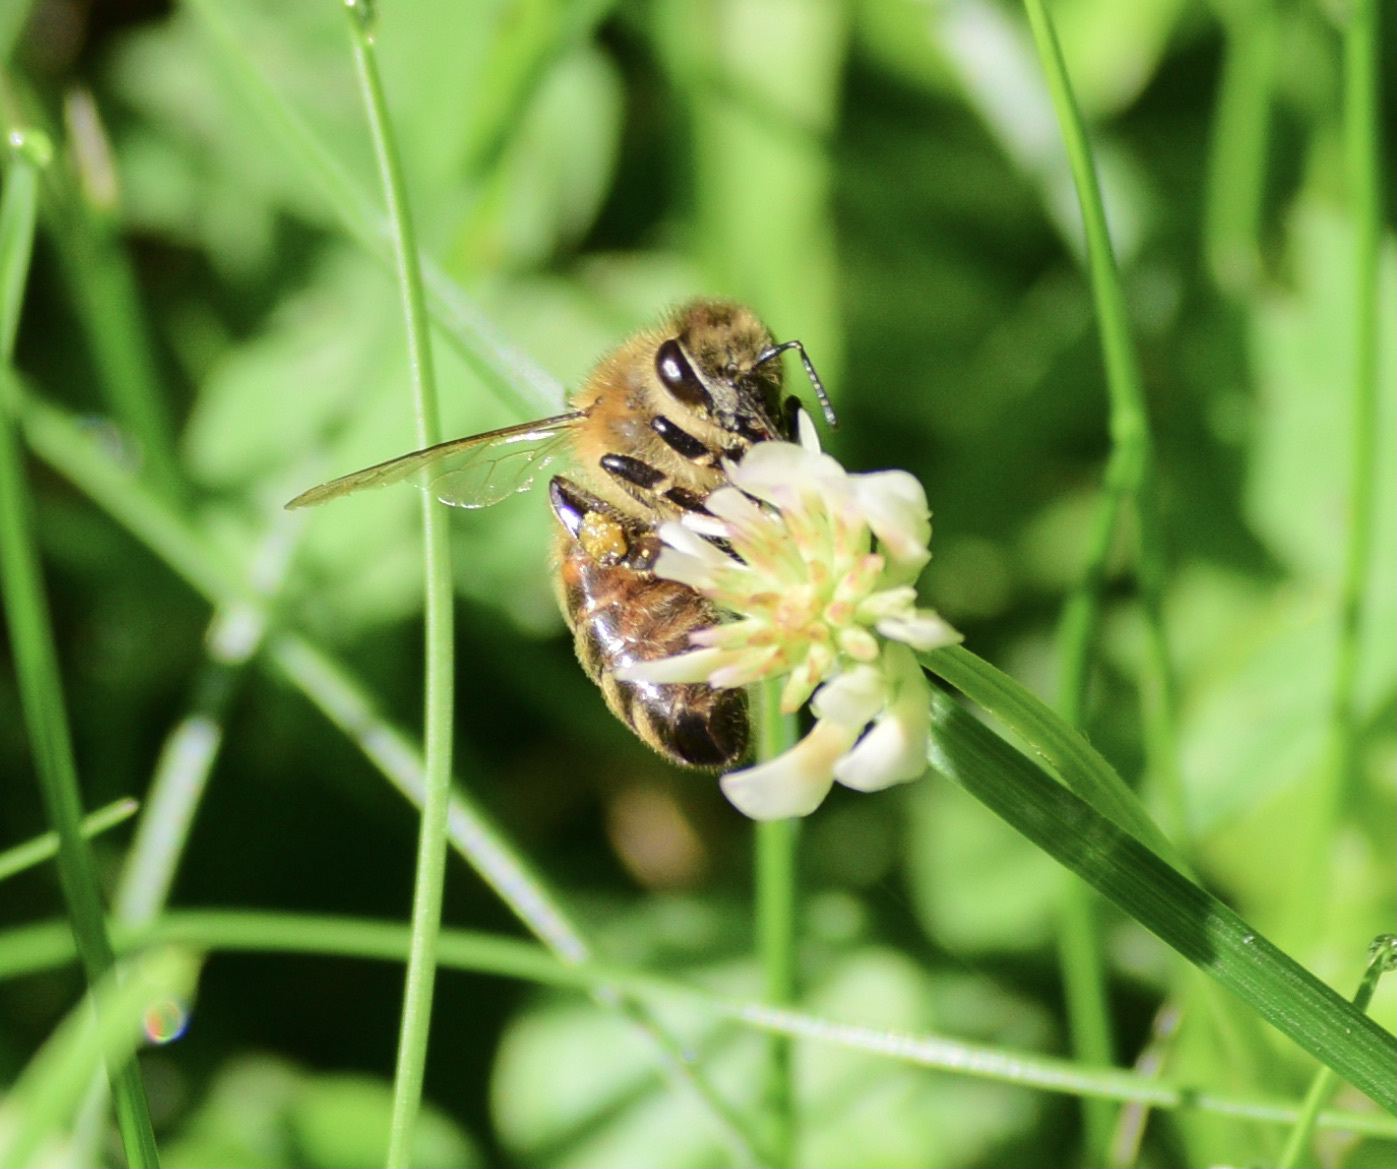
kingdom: Animalia
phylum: Arthropoda
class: Insecta
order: Hymenoptera
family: Apidae
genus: Apis
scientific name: Apis mellifera
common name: Honey bee
